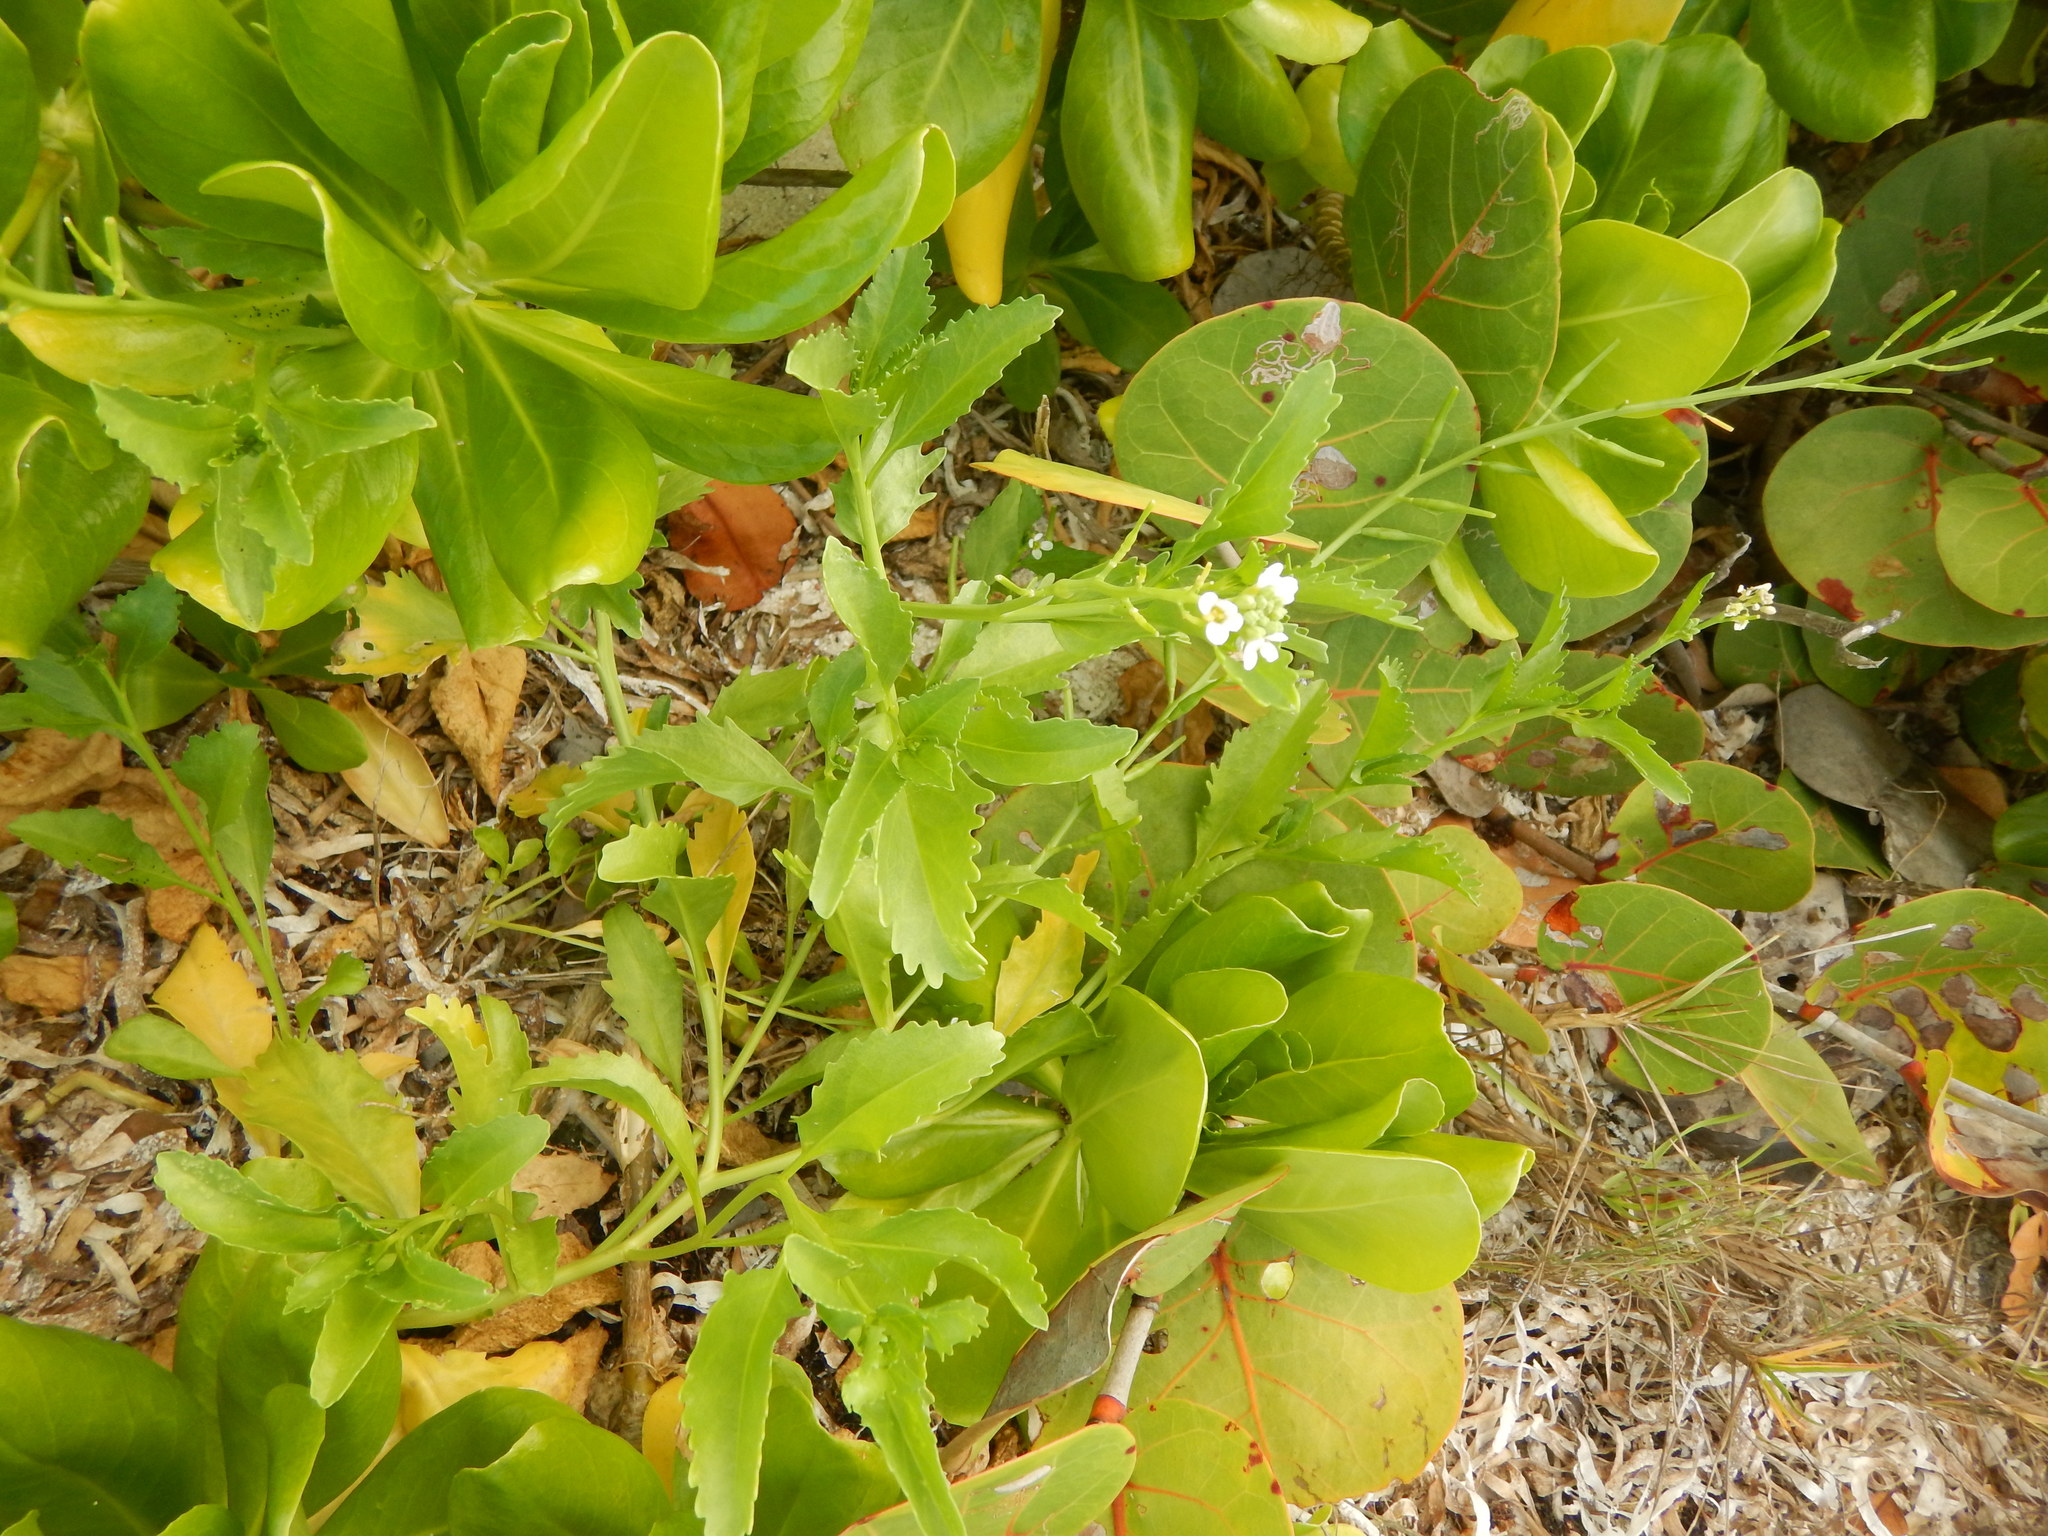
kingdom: Plantae
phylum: Tracheophyta
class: Magnoliopsida
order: Brassicales
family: Brassicaceae
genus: Cakile
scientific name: Cakile lanceolata
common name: Sea rocket
